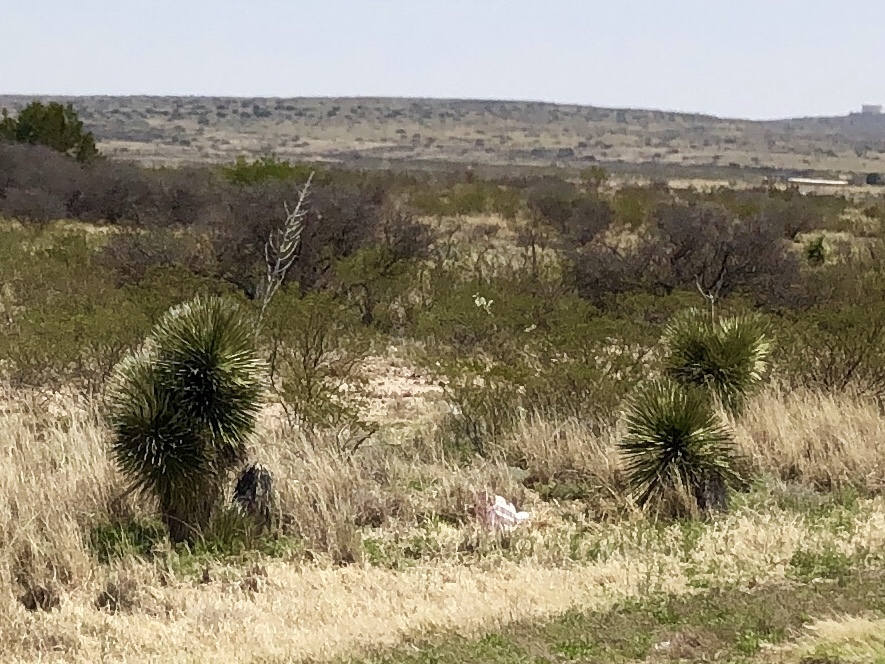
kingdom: Plantae
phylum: Tracheophyta
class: Liliopsida
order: Asparagales
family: Asparagaceae
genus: Yucca
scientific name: Yucca elata
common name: Palmella
